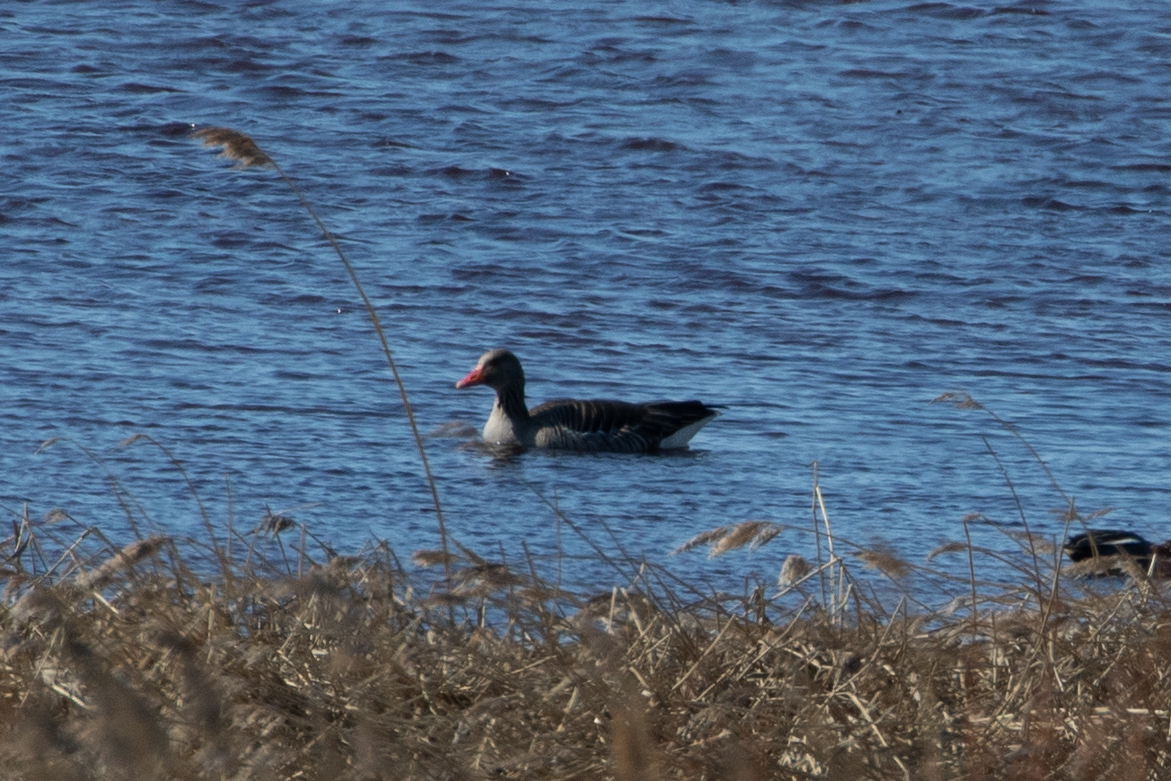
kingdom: Animalia
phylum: Chordata
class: Aves
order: Anseriformes
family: Anatidae
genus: Anser
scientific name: Anser anser
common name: Greylag goose
